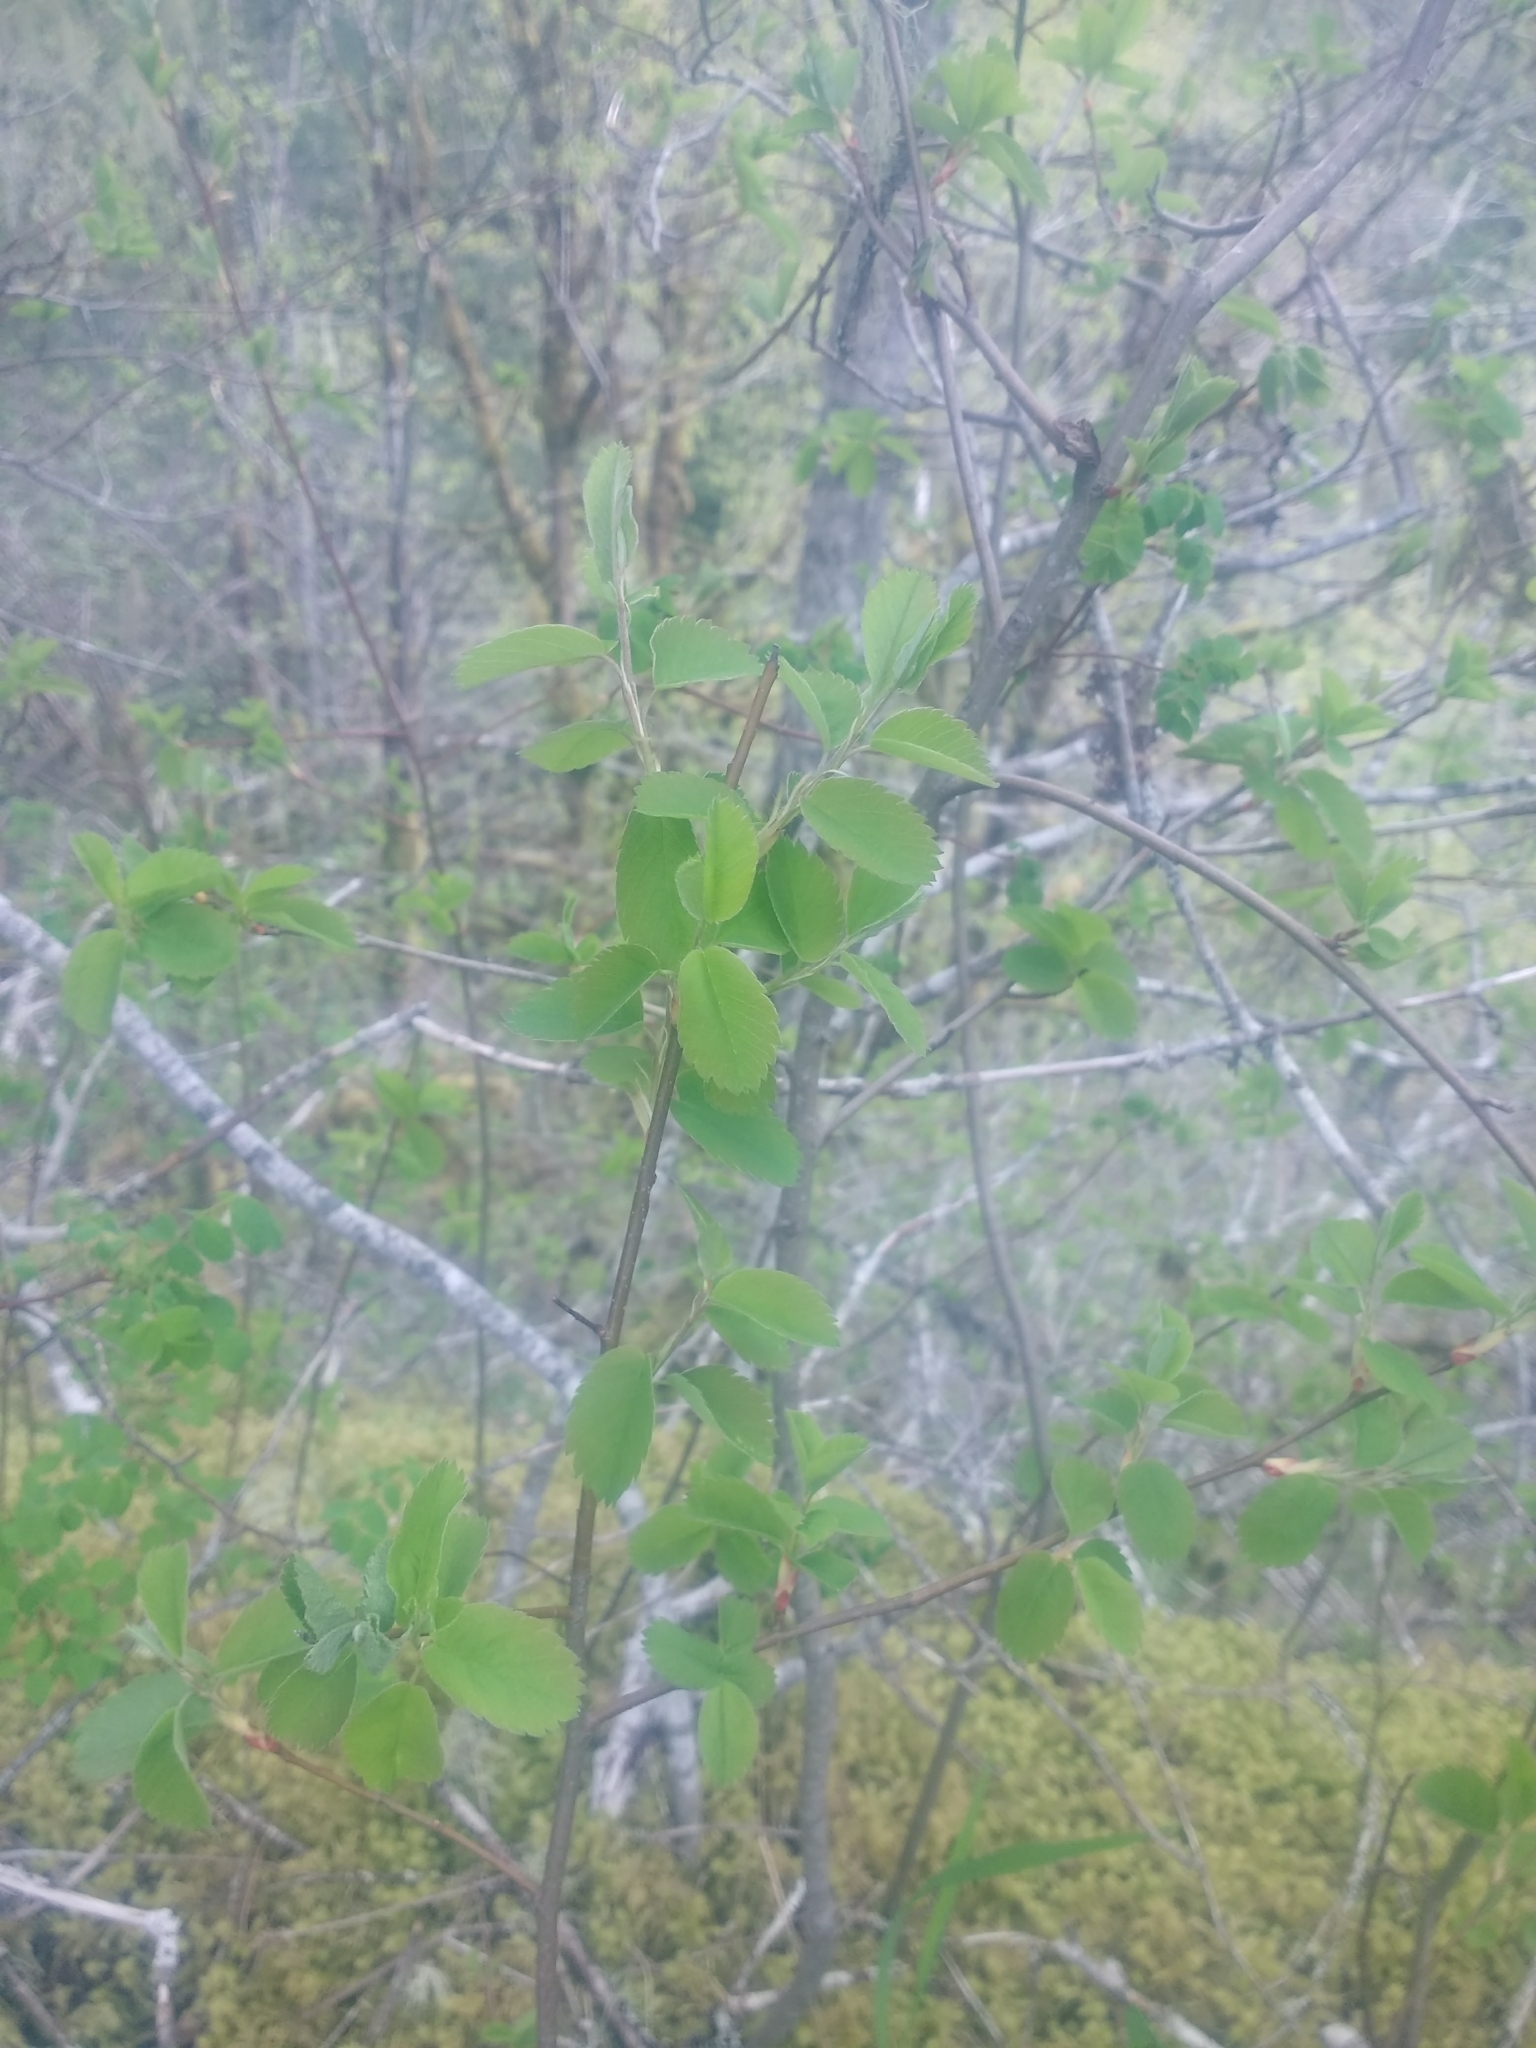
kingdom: Plantae
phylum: Tracheophyta
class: Magnoliopsida
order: Rosales
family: Rosaceae
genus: Amelanchier
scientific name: Amelanchier alnifolia
